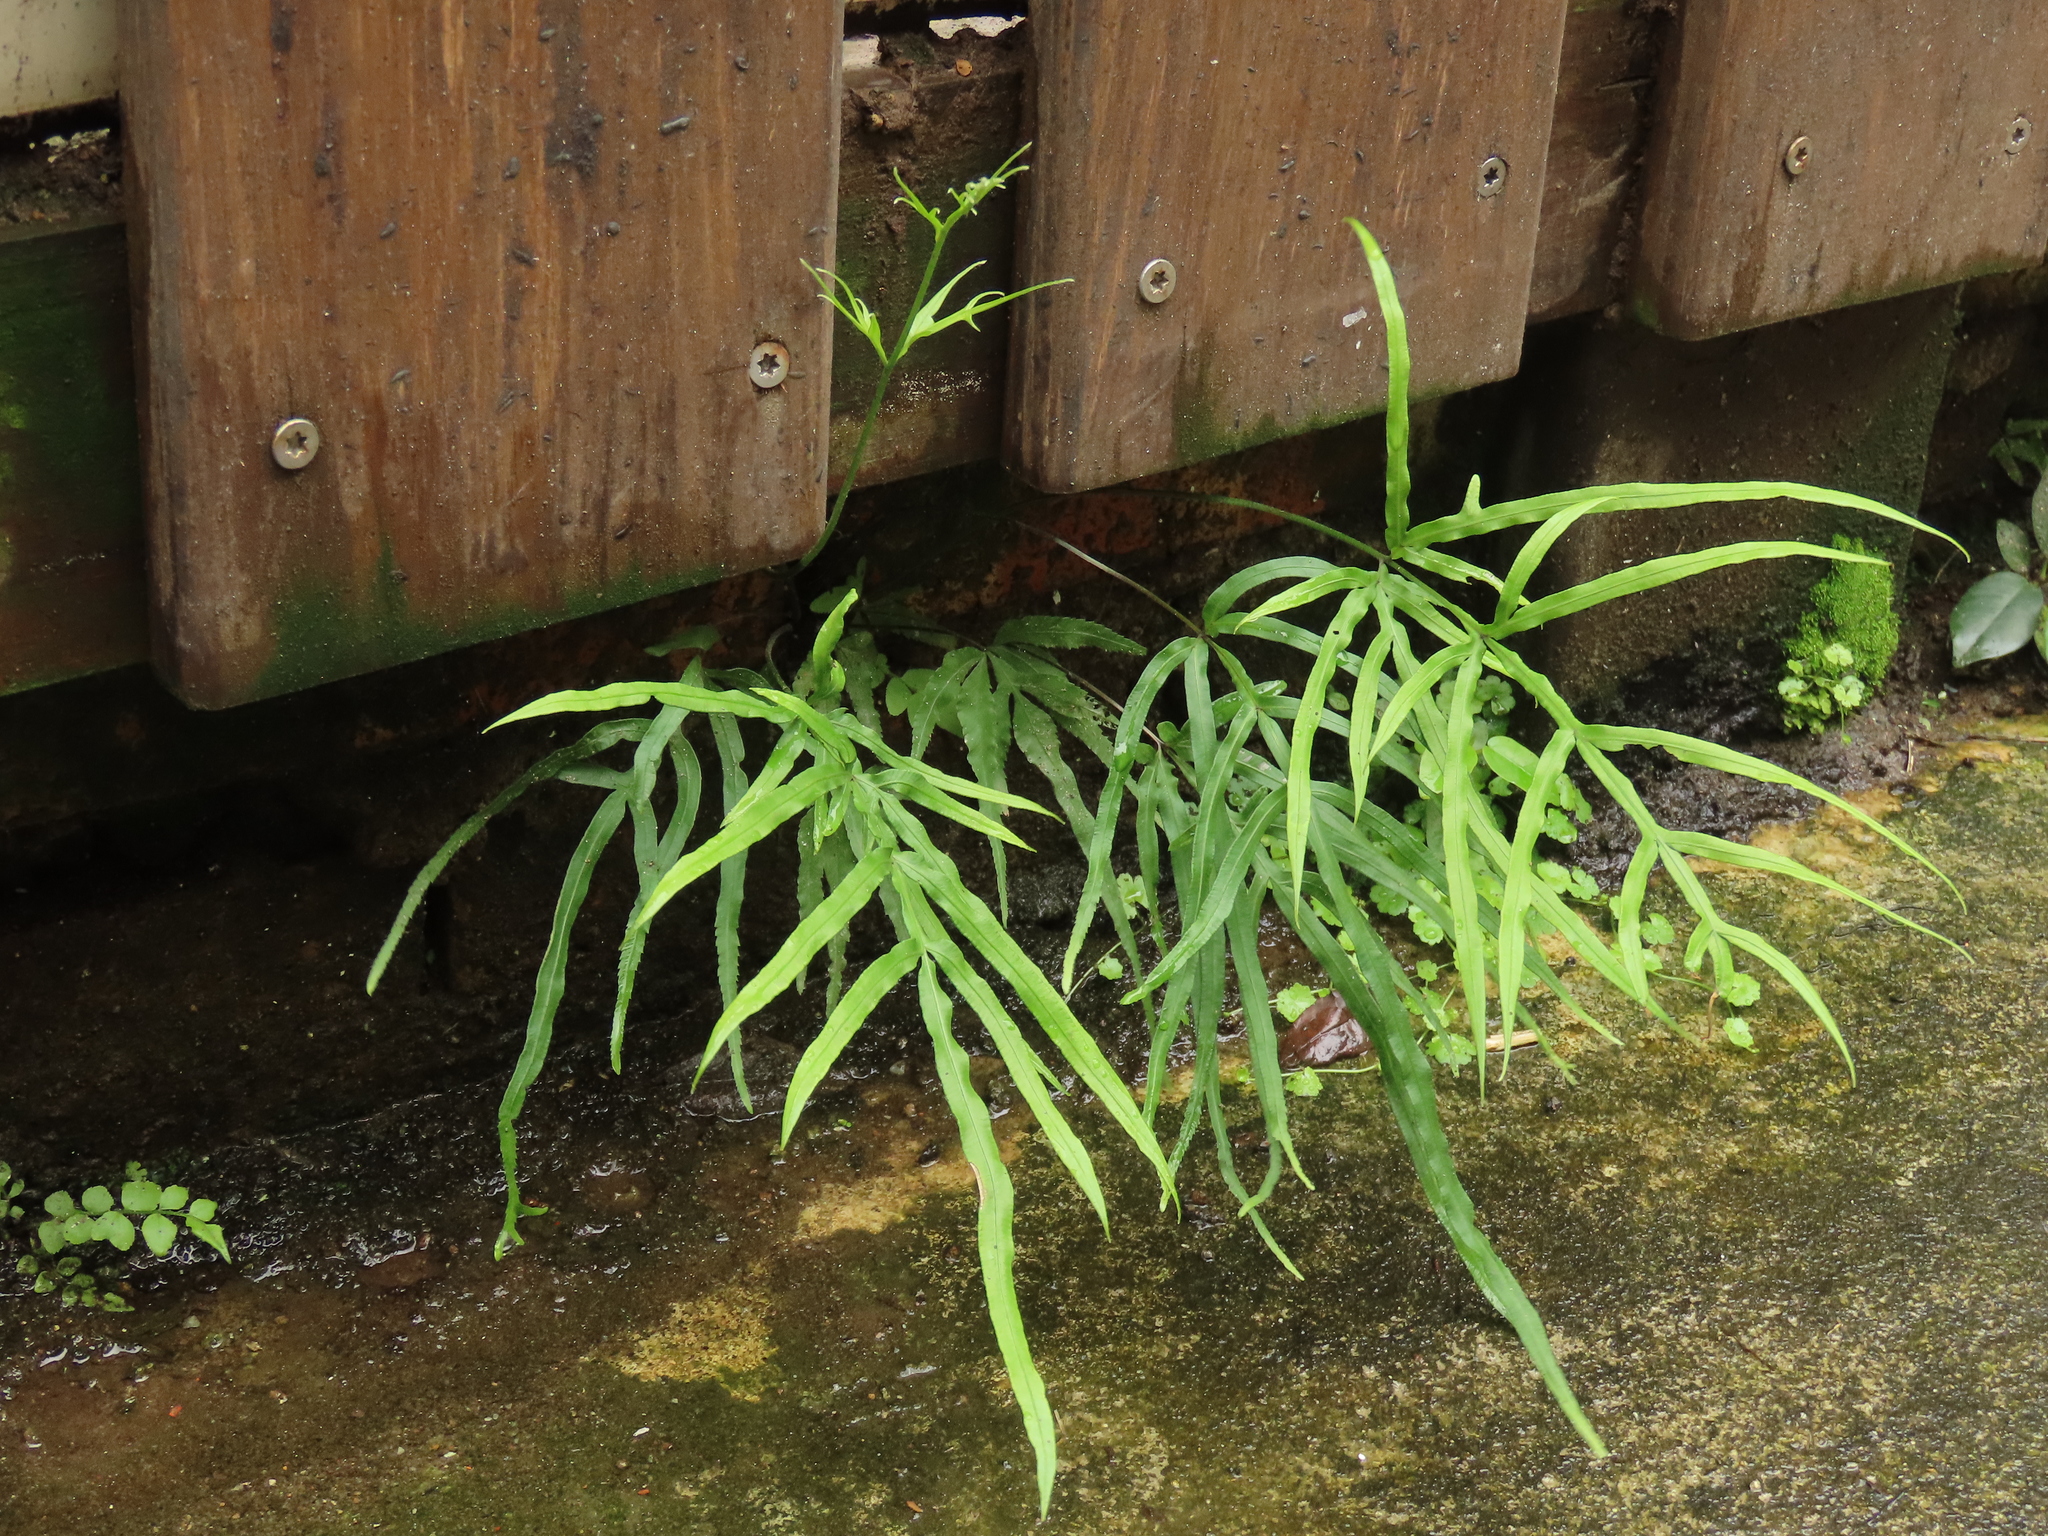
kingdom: Plantae
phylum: Tracheophyta
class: Polypodiopsida
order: Polypodiales
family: Pteridaceae
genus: Pteris
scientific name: Pteris multifida
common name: Spider brake
